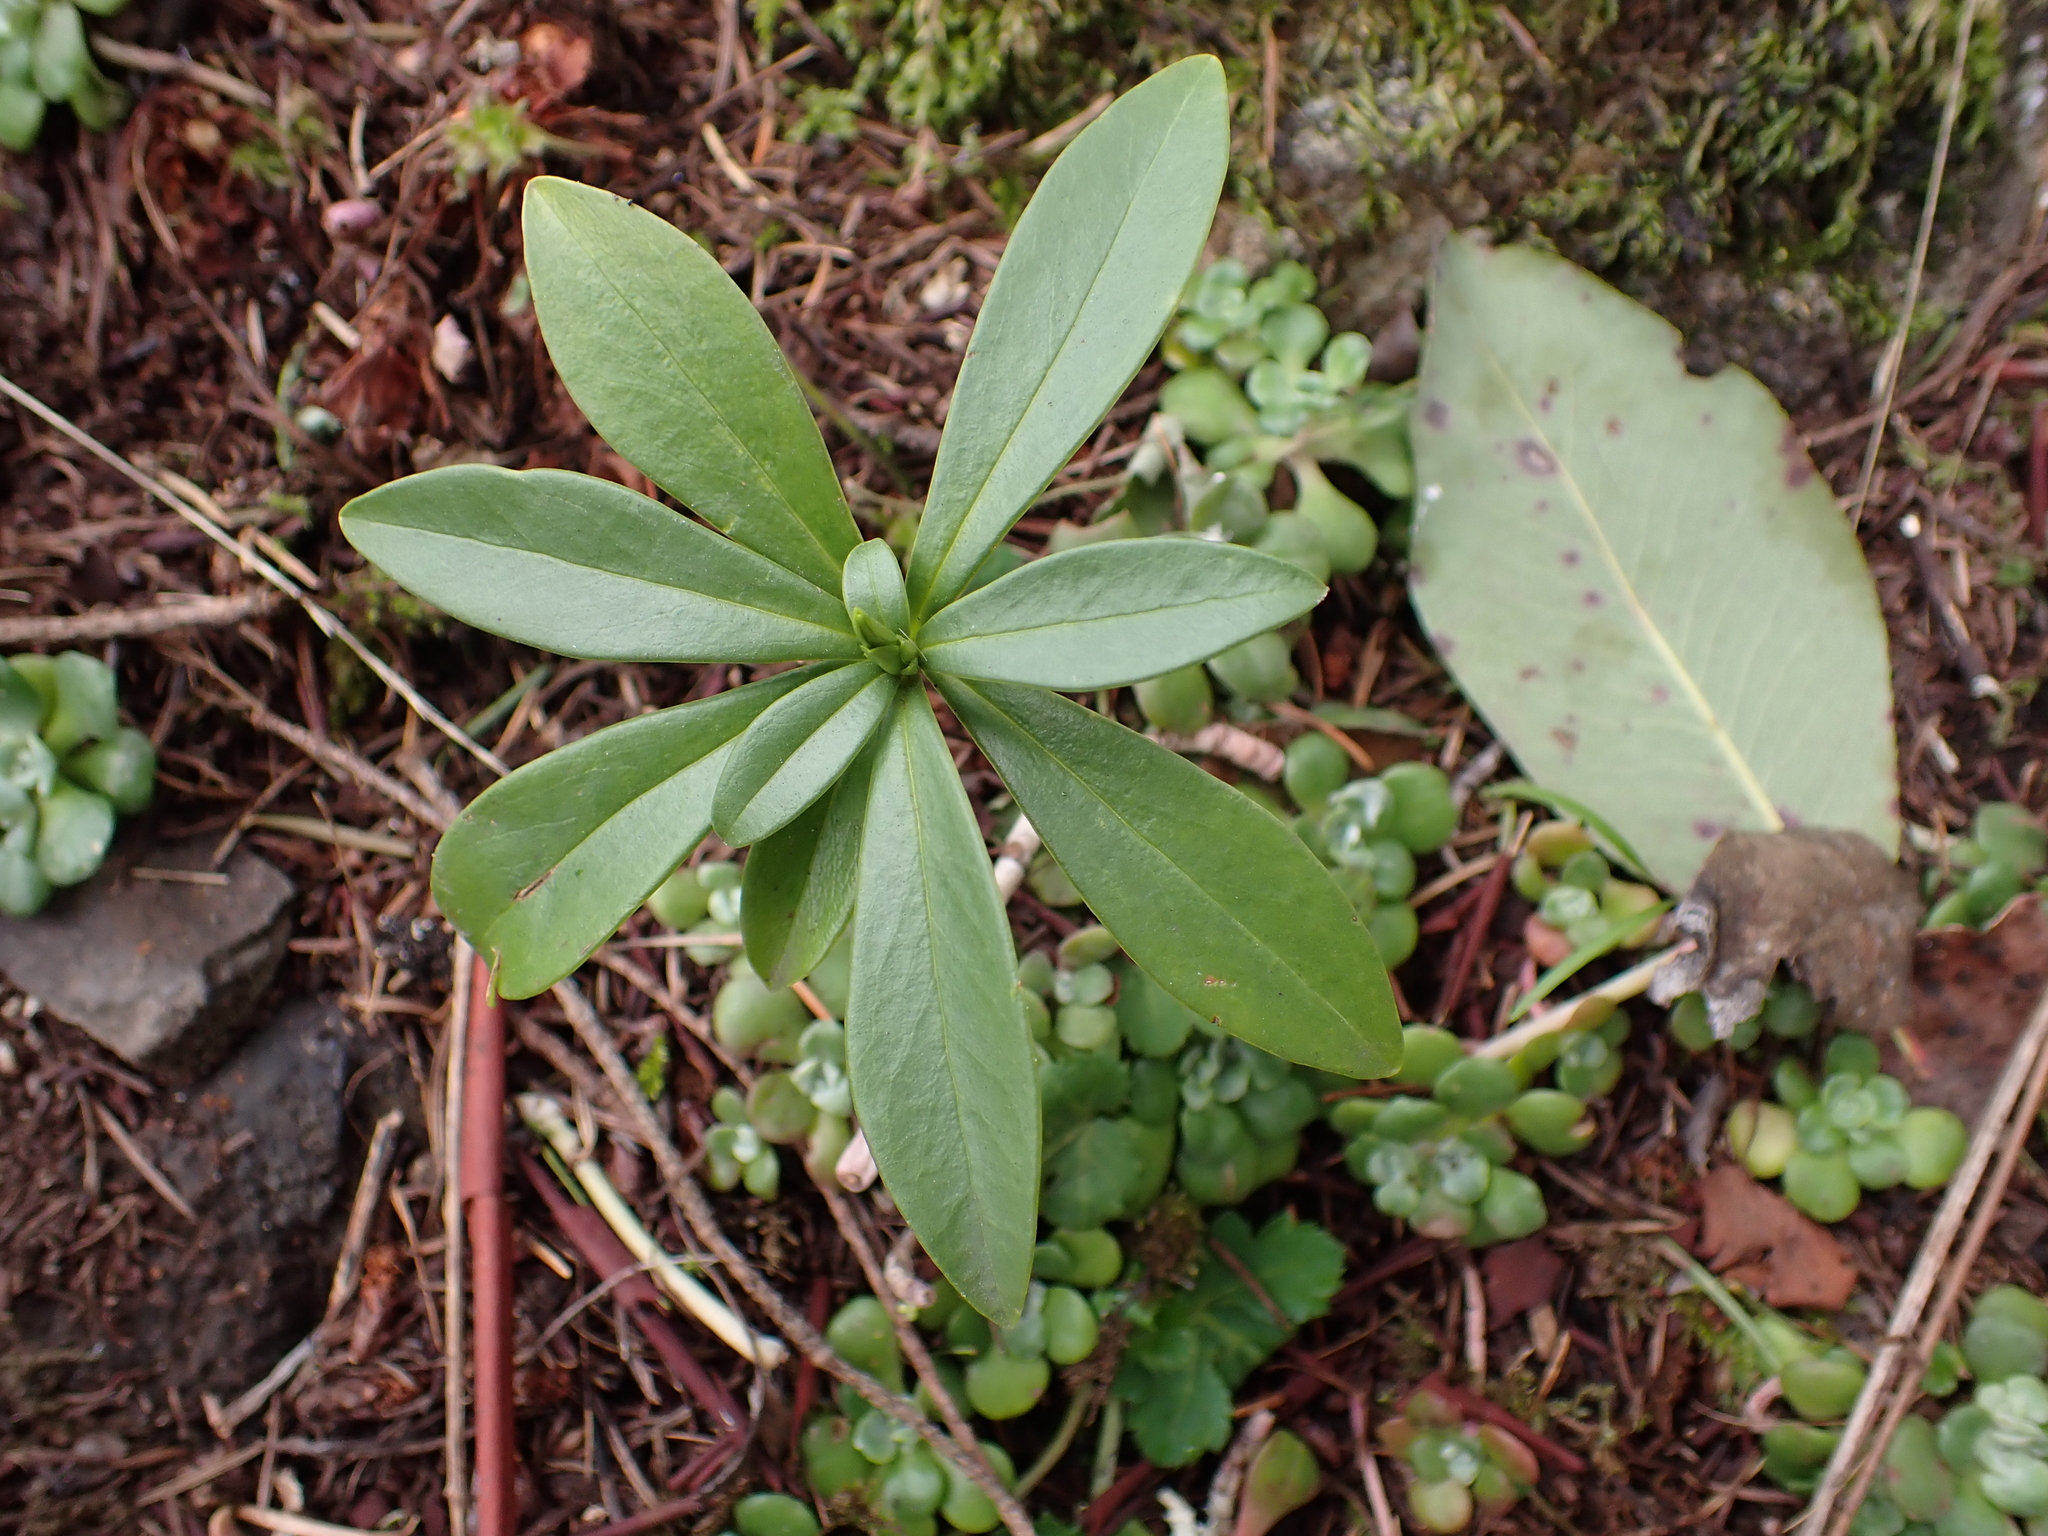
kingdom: Plantae
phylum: Tracheophyta
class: Magnoliopsida
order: Malvales
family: Thymelaeaceae
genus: Daphne
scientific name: Daphne laureola
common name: Spurge-laurel
